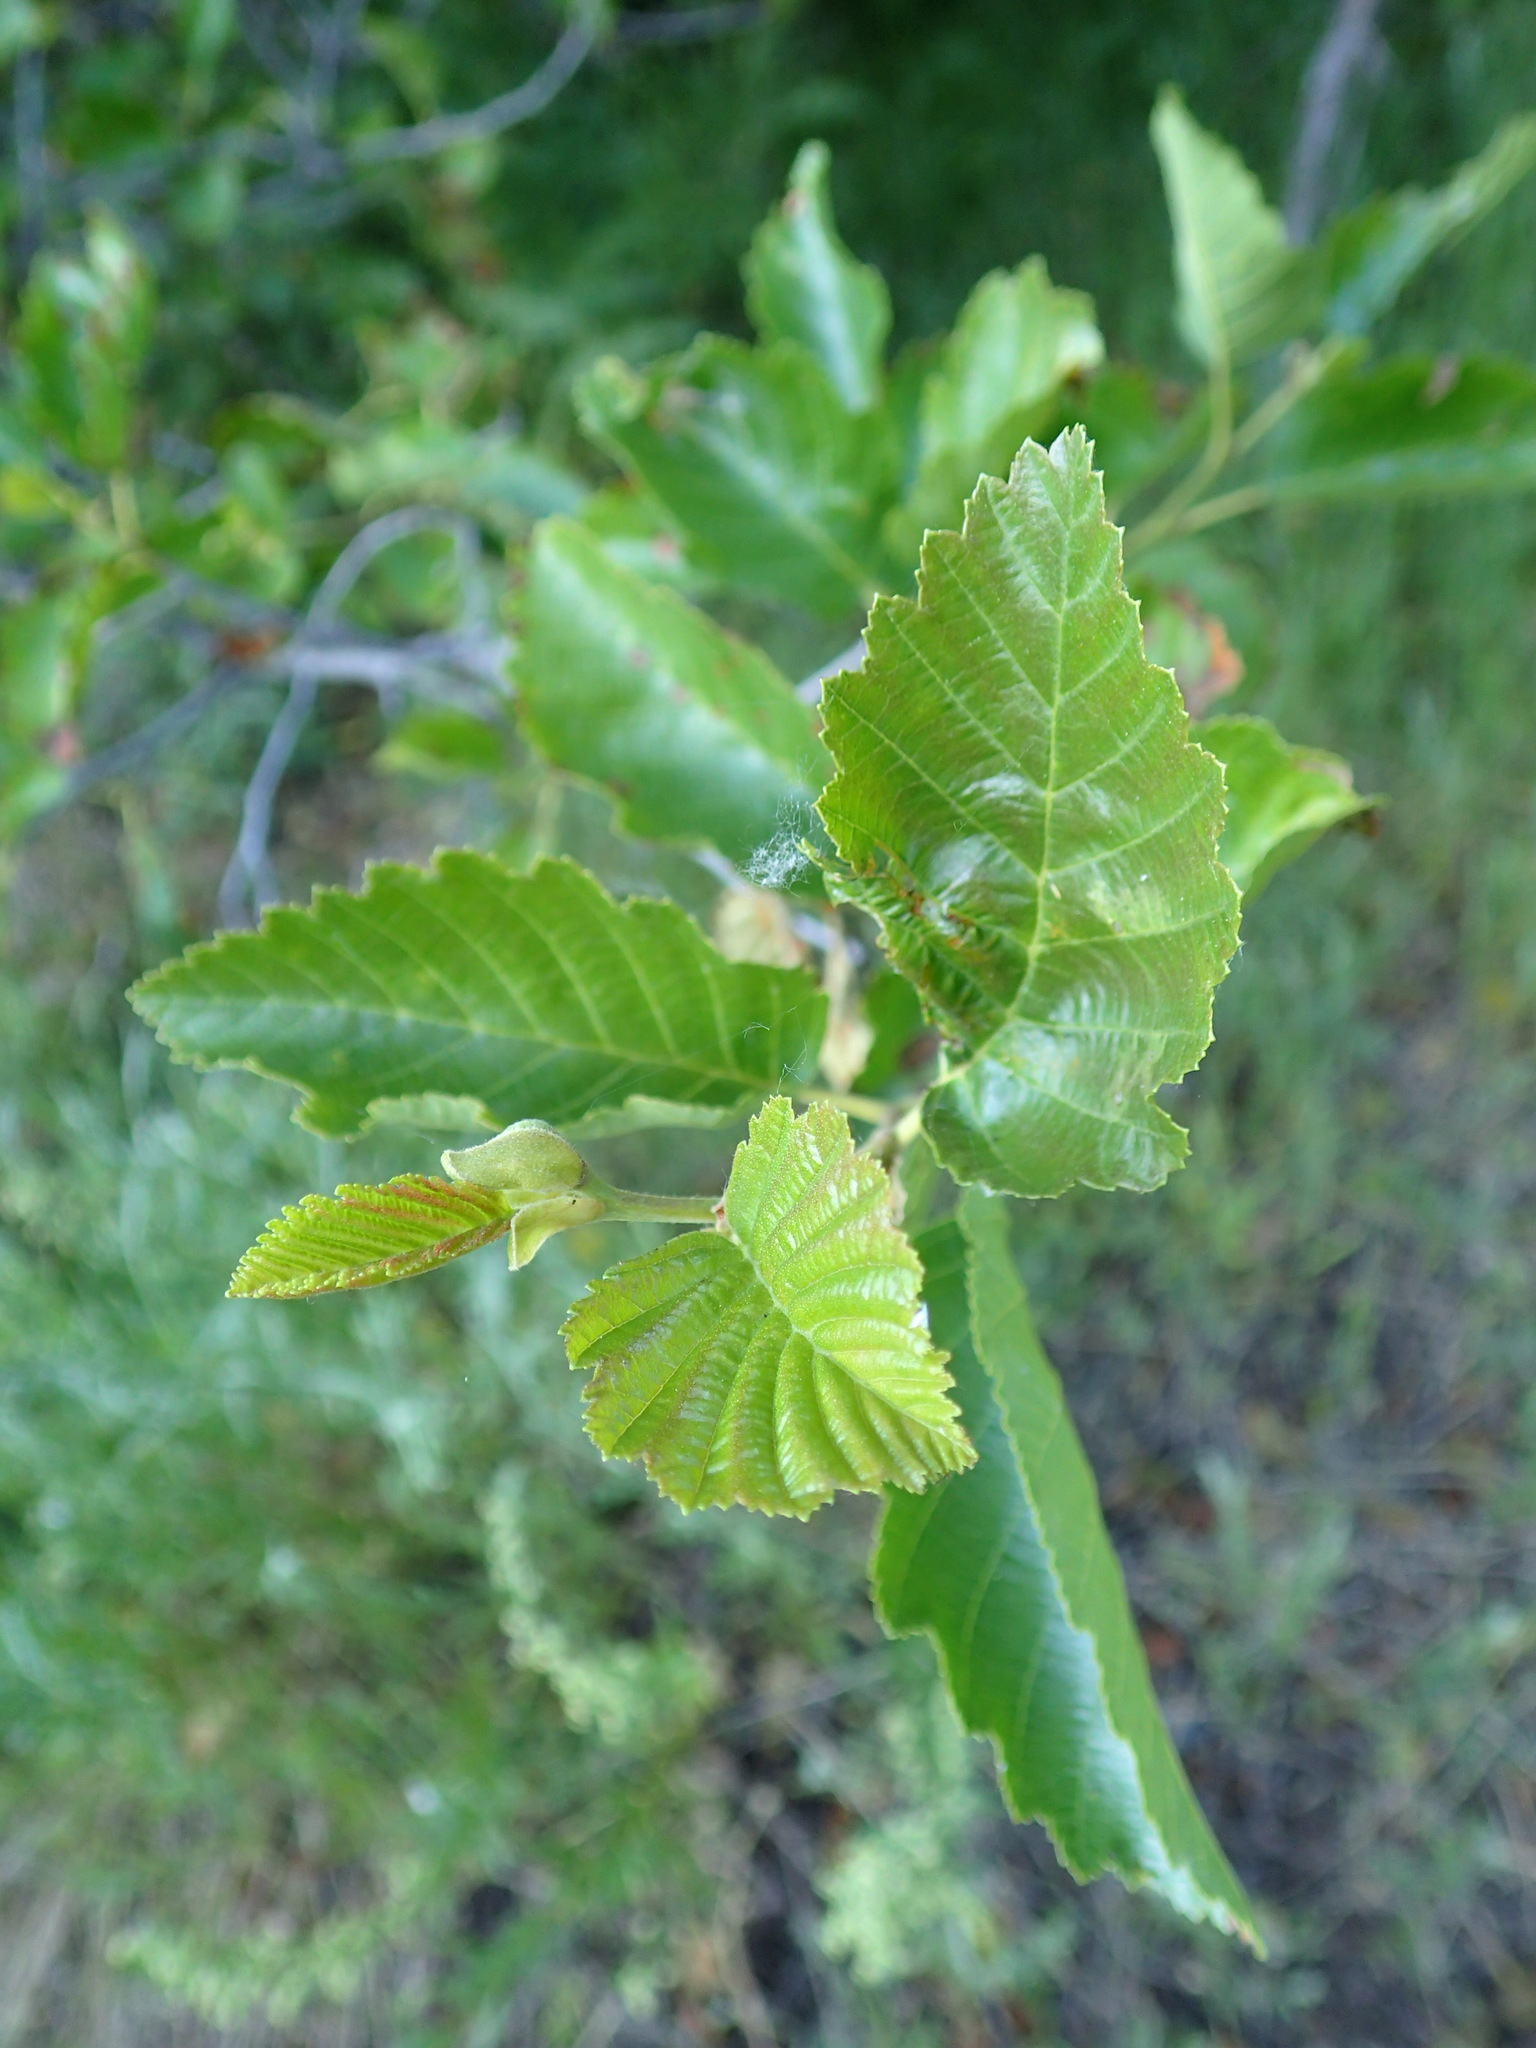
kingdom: Plantae
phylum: Tracheophyta
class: Magnoliopsida
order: Fagales
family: Betulaceae
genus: Alnus
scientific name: Alnus incana
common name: Grey alder
